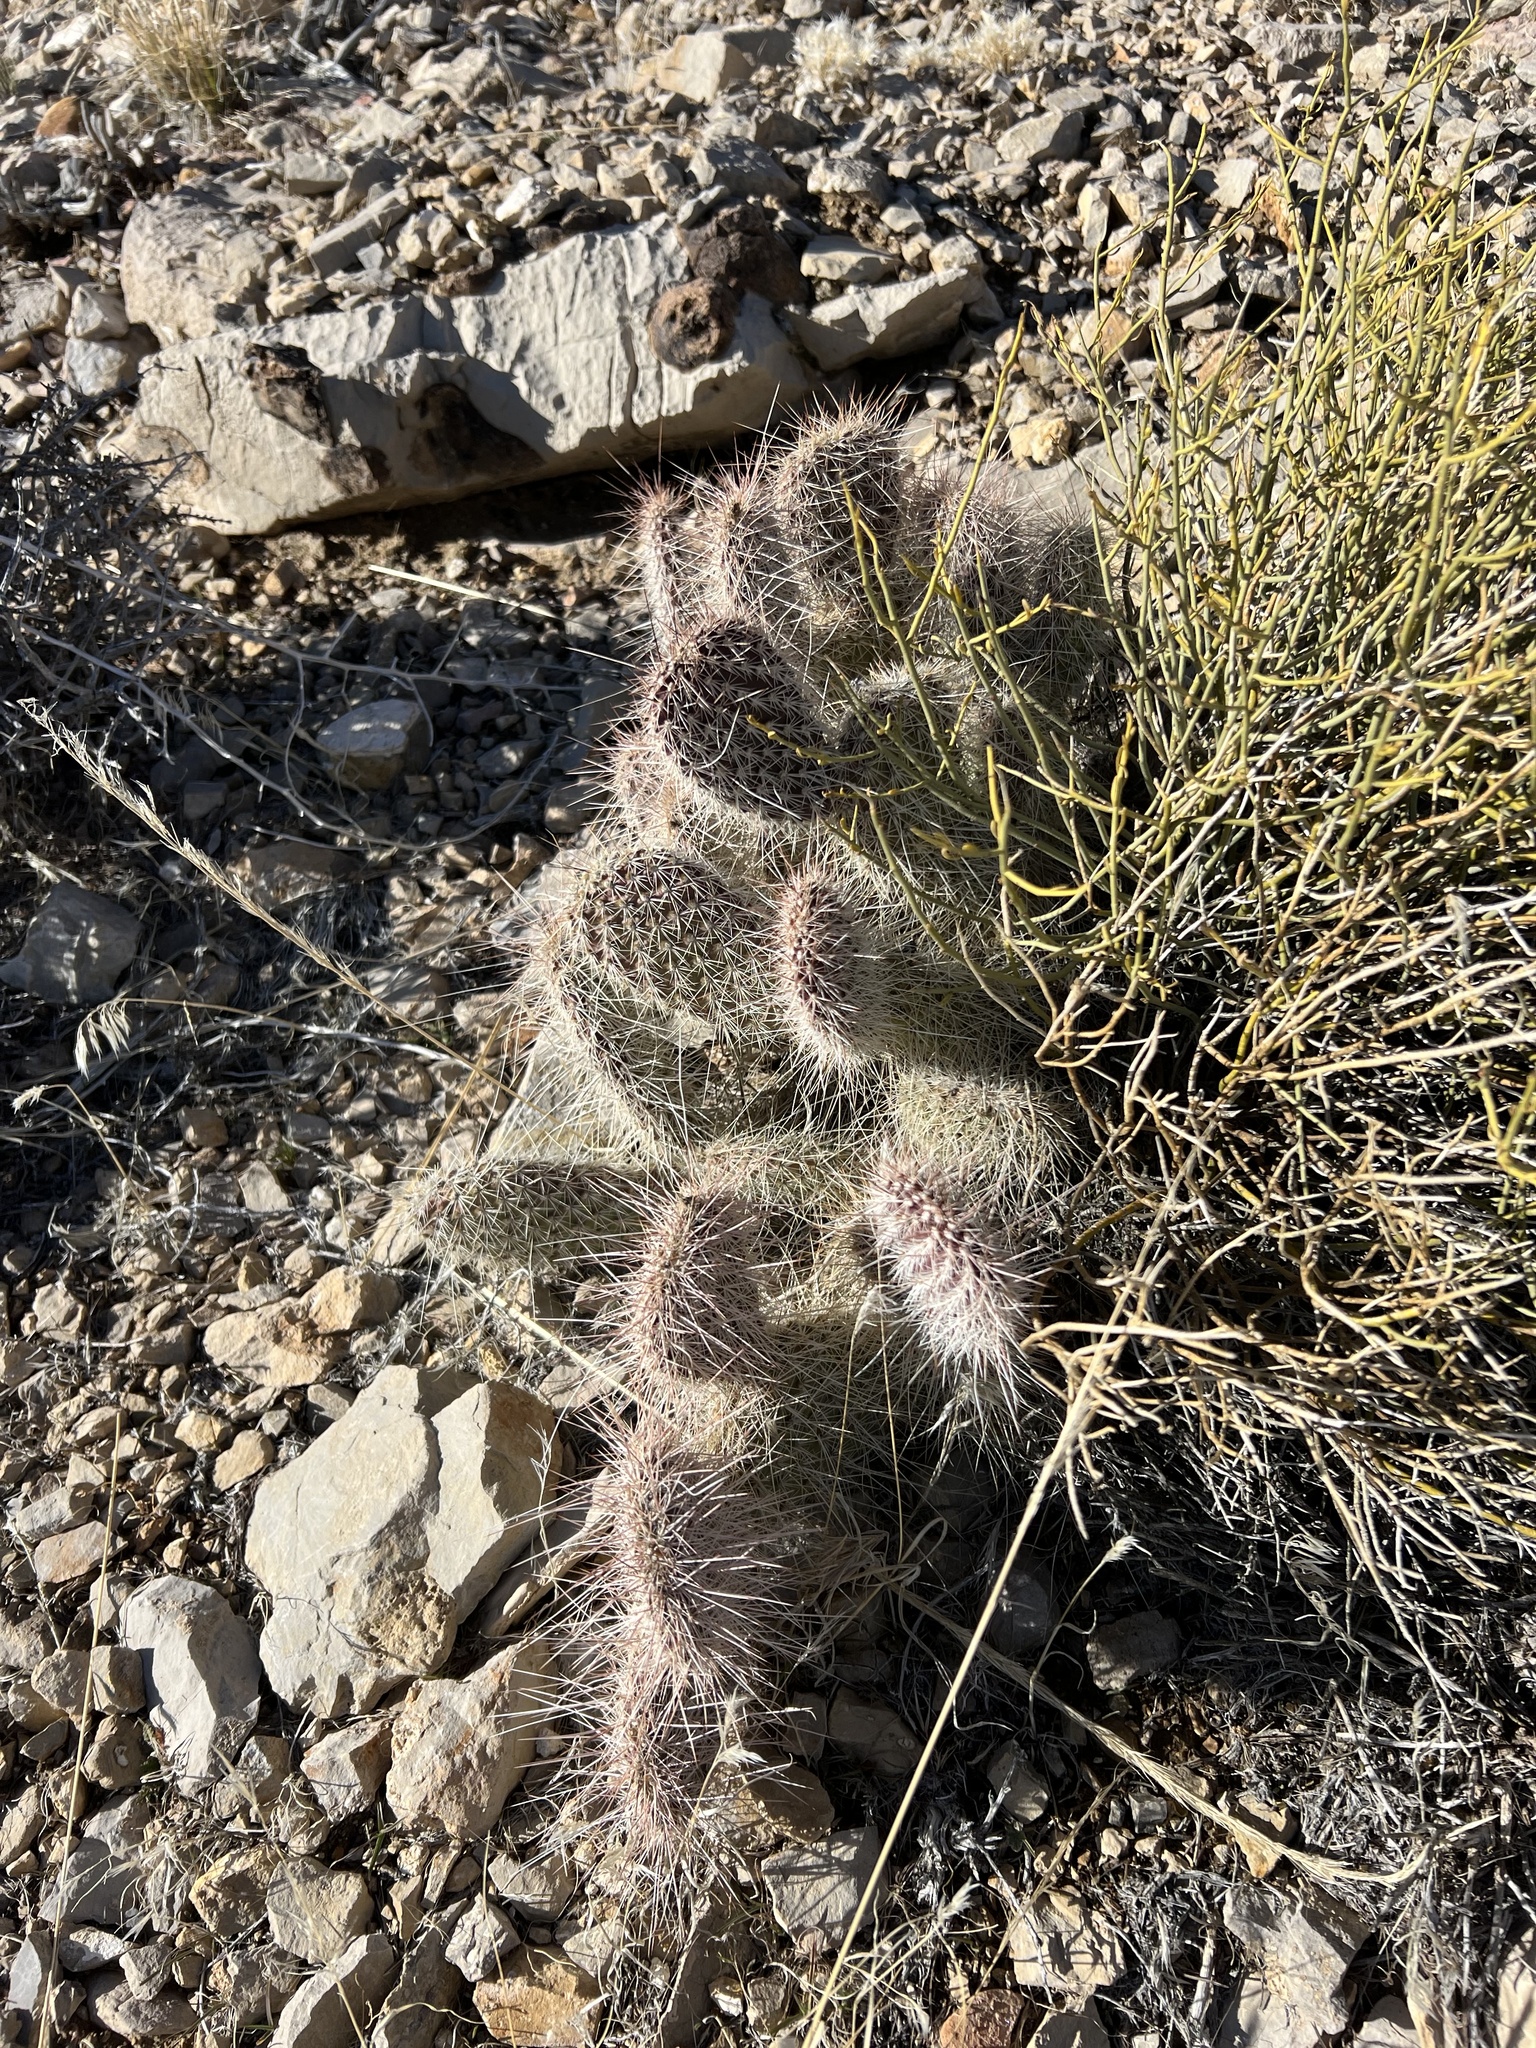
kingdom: Plantae
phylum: Tracheophyta
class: Magnoliopsida
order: Caryophyllales
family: Cactaceae
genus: Opuntia
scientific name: Opuntia polyacantha
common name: Plains prickly-pear
